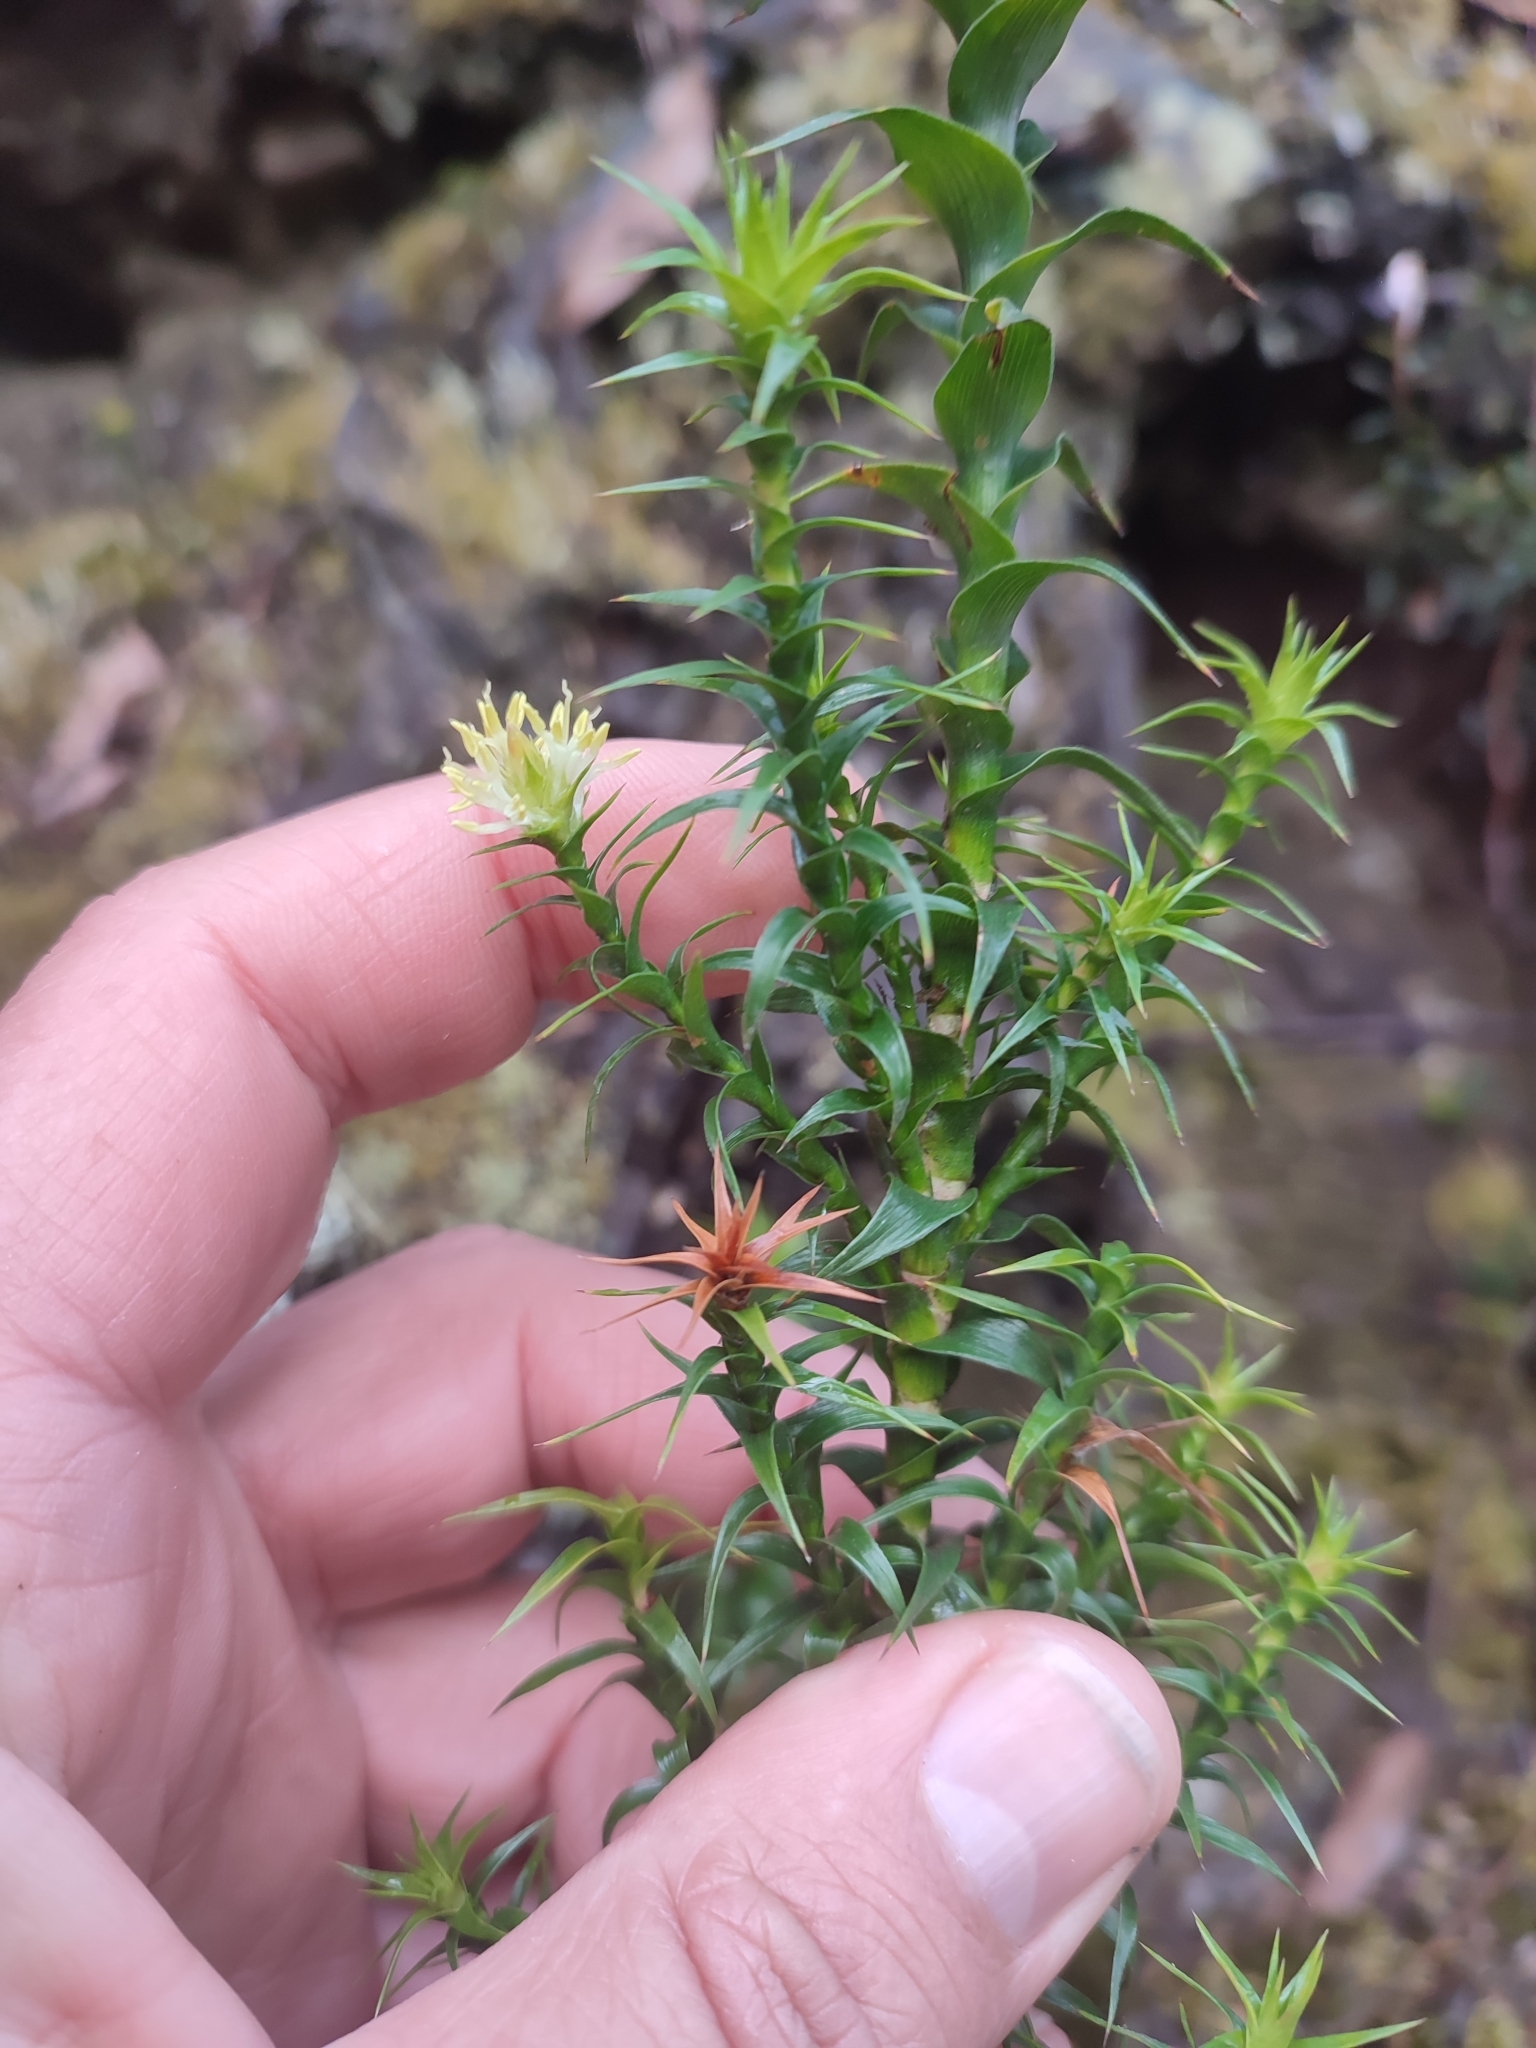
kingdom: Plantae
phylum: Tracheophyta
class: Magnoliopsida
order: Ericales
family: Ericaceae
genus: Dracophyllum
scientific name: Dracophyllum procerum
